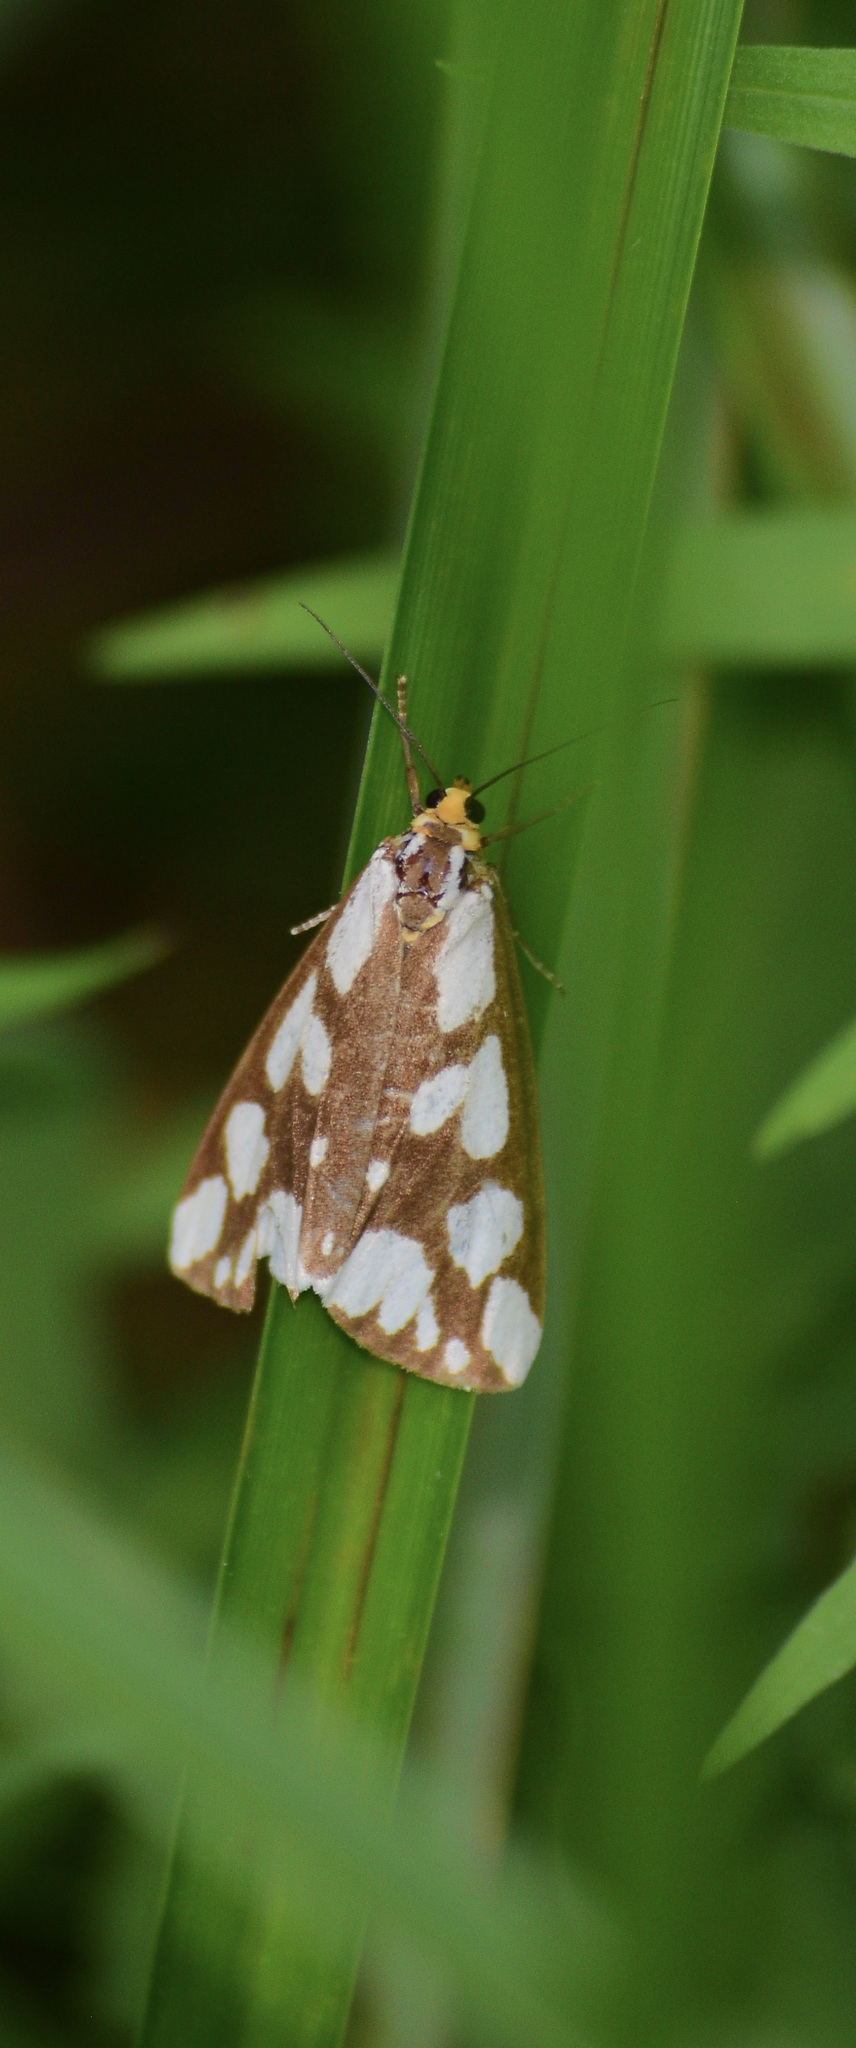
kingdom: Animalia
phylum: Arthropoda
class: Insecta
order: Lepidoptera
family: Erebidae
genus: Haploa
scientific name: Haploa confusa
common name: Confused haploa moth
